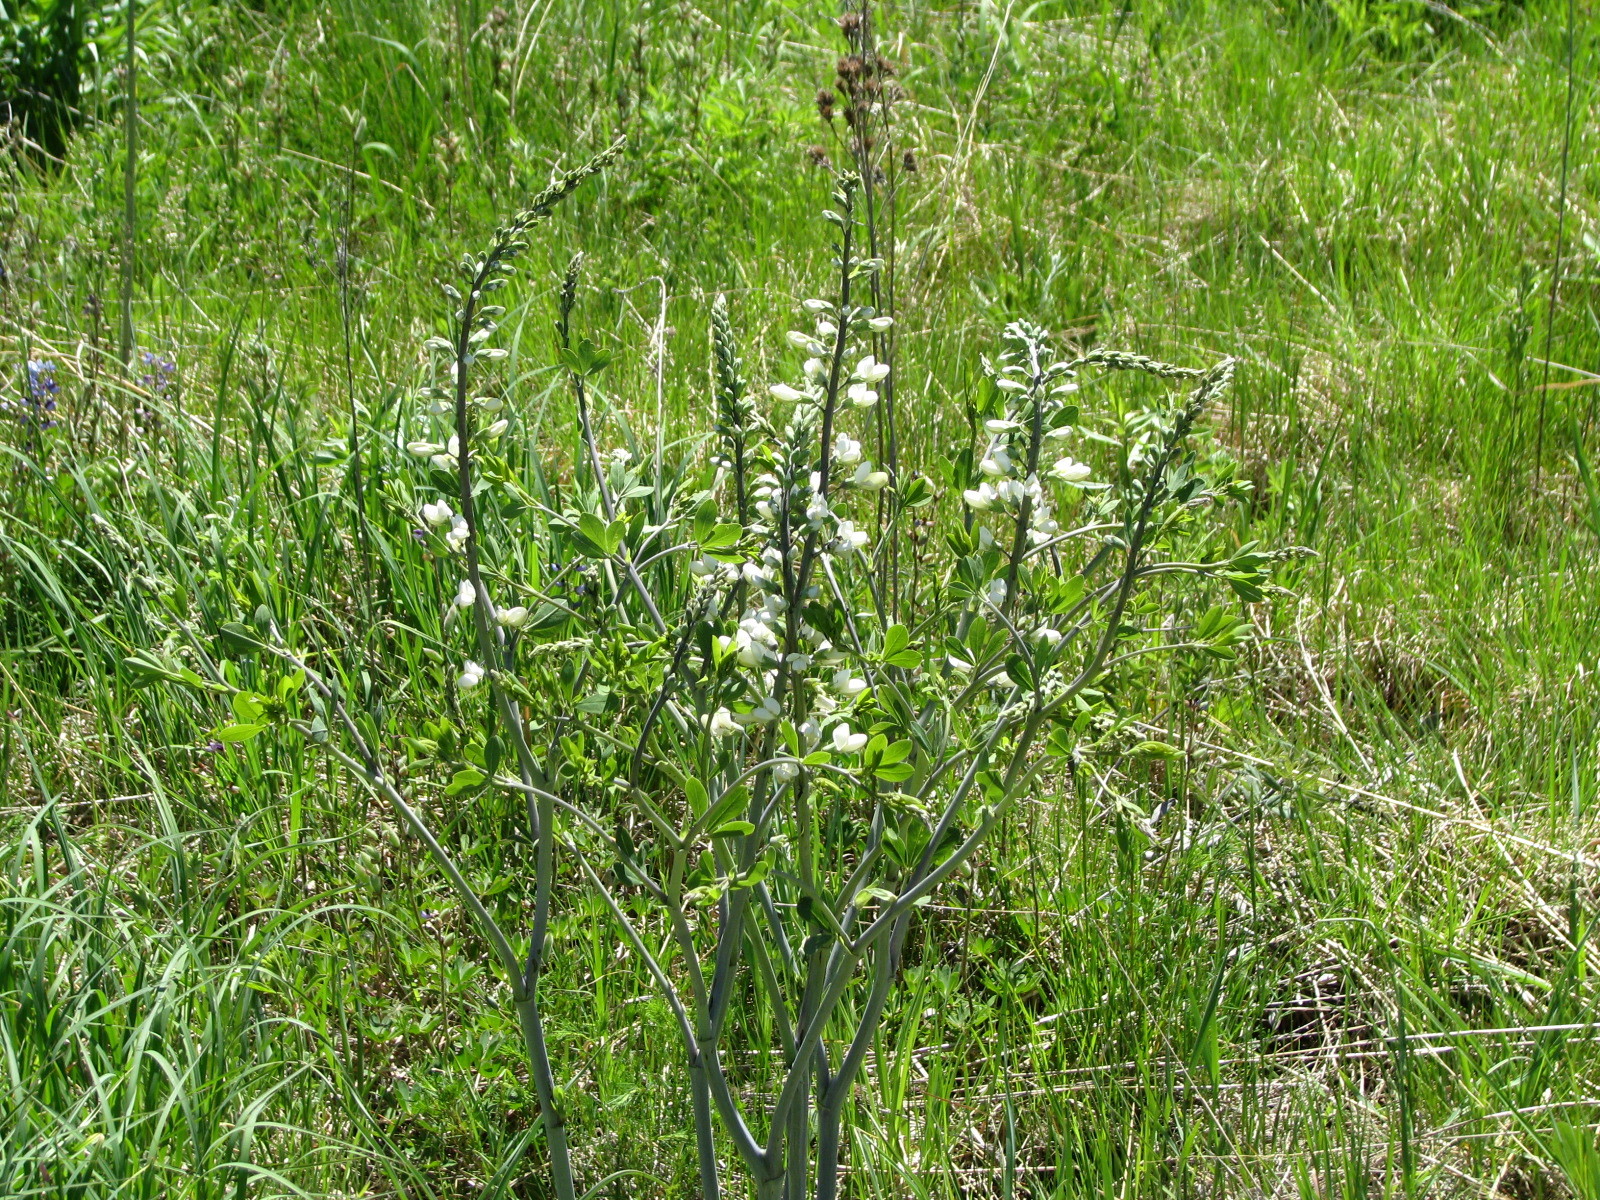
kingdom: Plantae
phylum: Tracheophyta
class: Magnoliopsida
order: Fabales
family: Fabaceae
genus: Baptisia
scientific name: Baptisia alba
